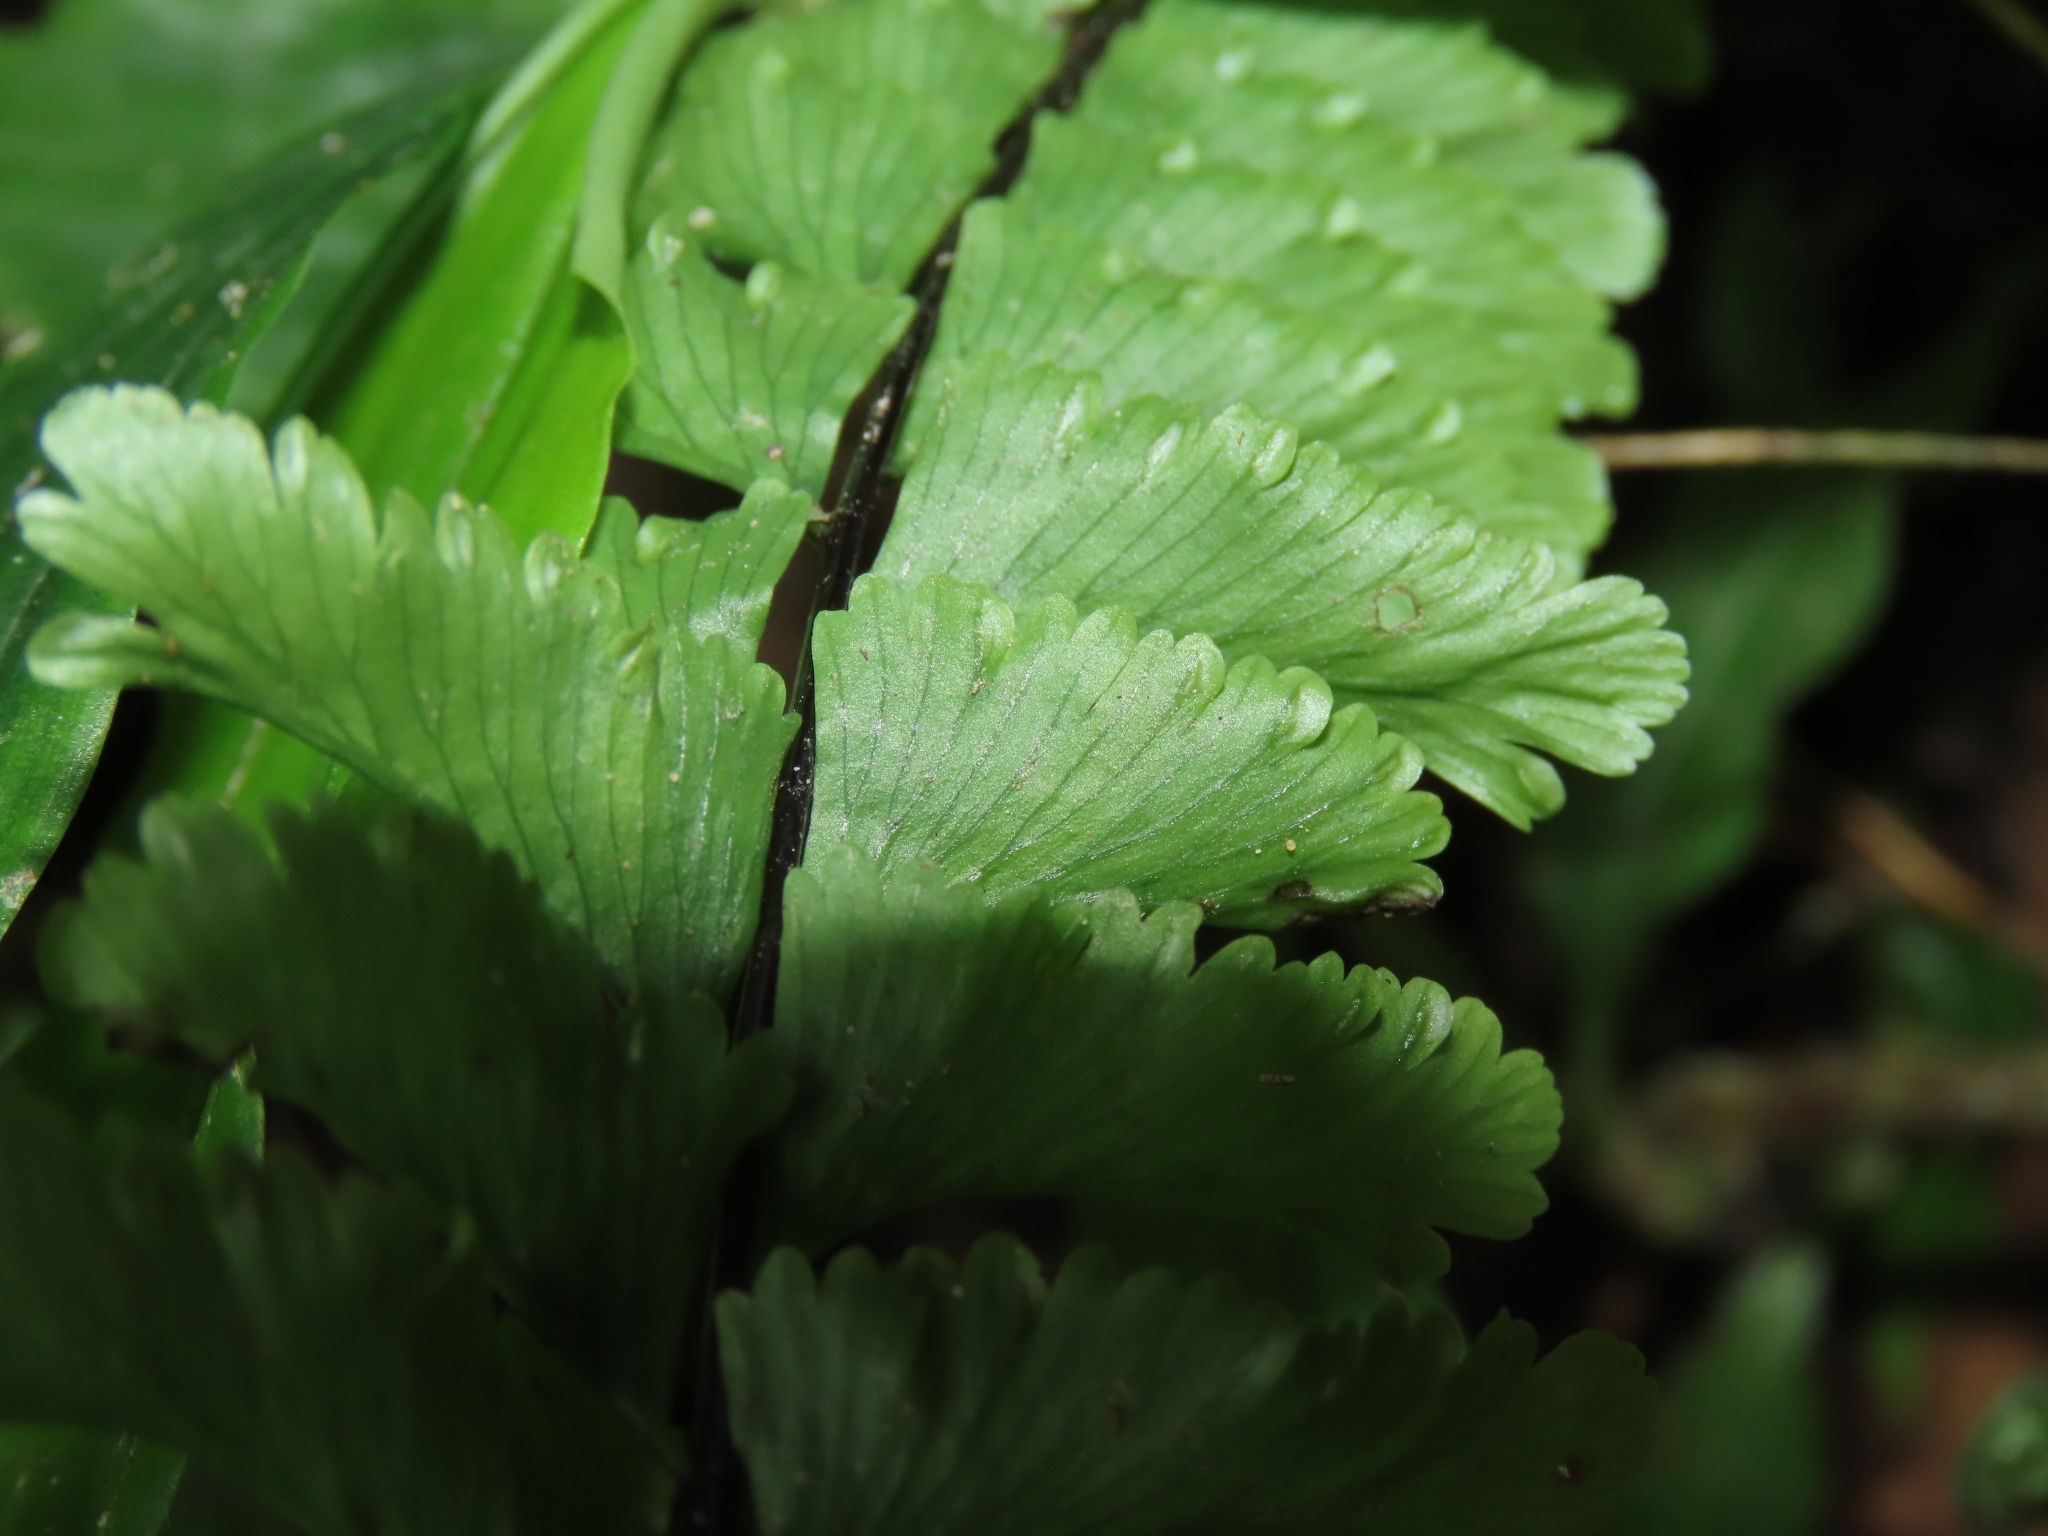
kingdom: Plantae
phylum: Tracheophyta
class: Polypodiopsida
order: Polypodiales
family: Aspleniaceae
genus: Hymenasplenium
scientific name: Hymenasplenium cheilosorum
